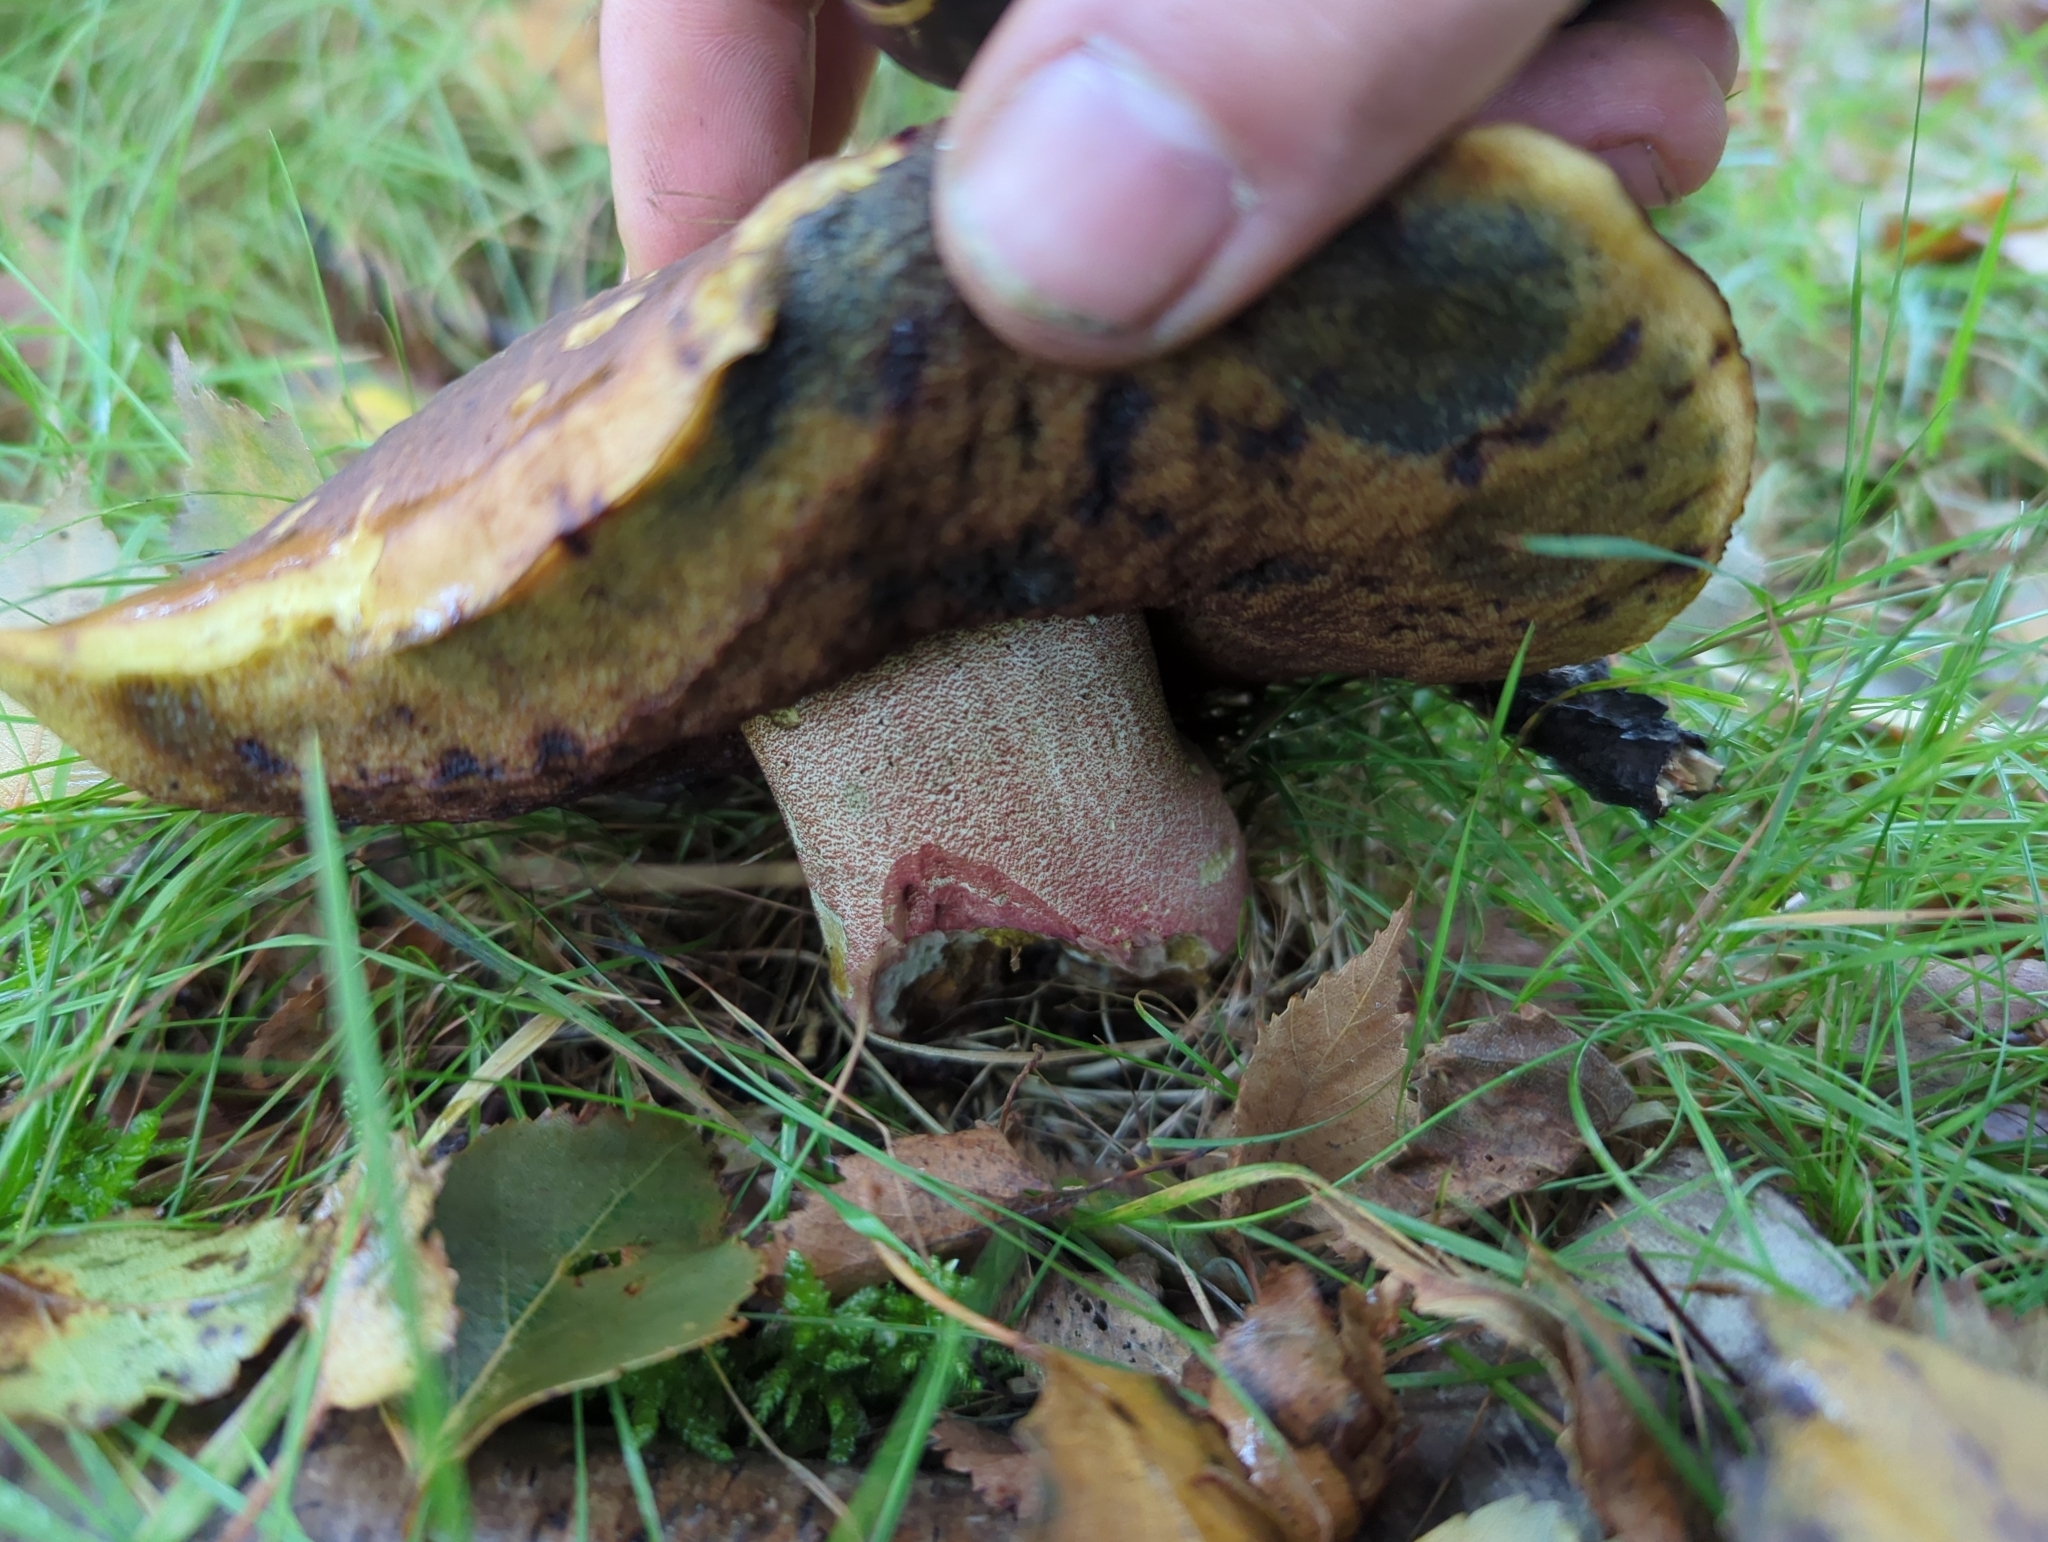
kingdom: Fungi
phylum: Basidiomycota
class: Agaricomycetes
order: Boletales
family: Boletaceae
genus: Neoboletus
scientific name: Neoboletus erythropus
